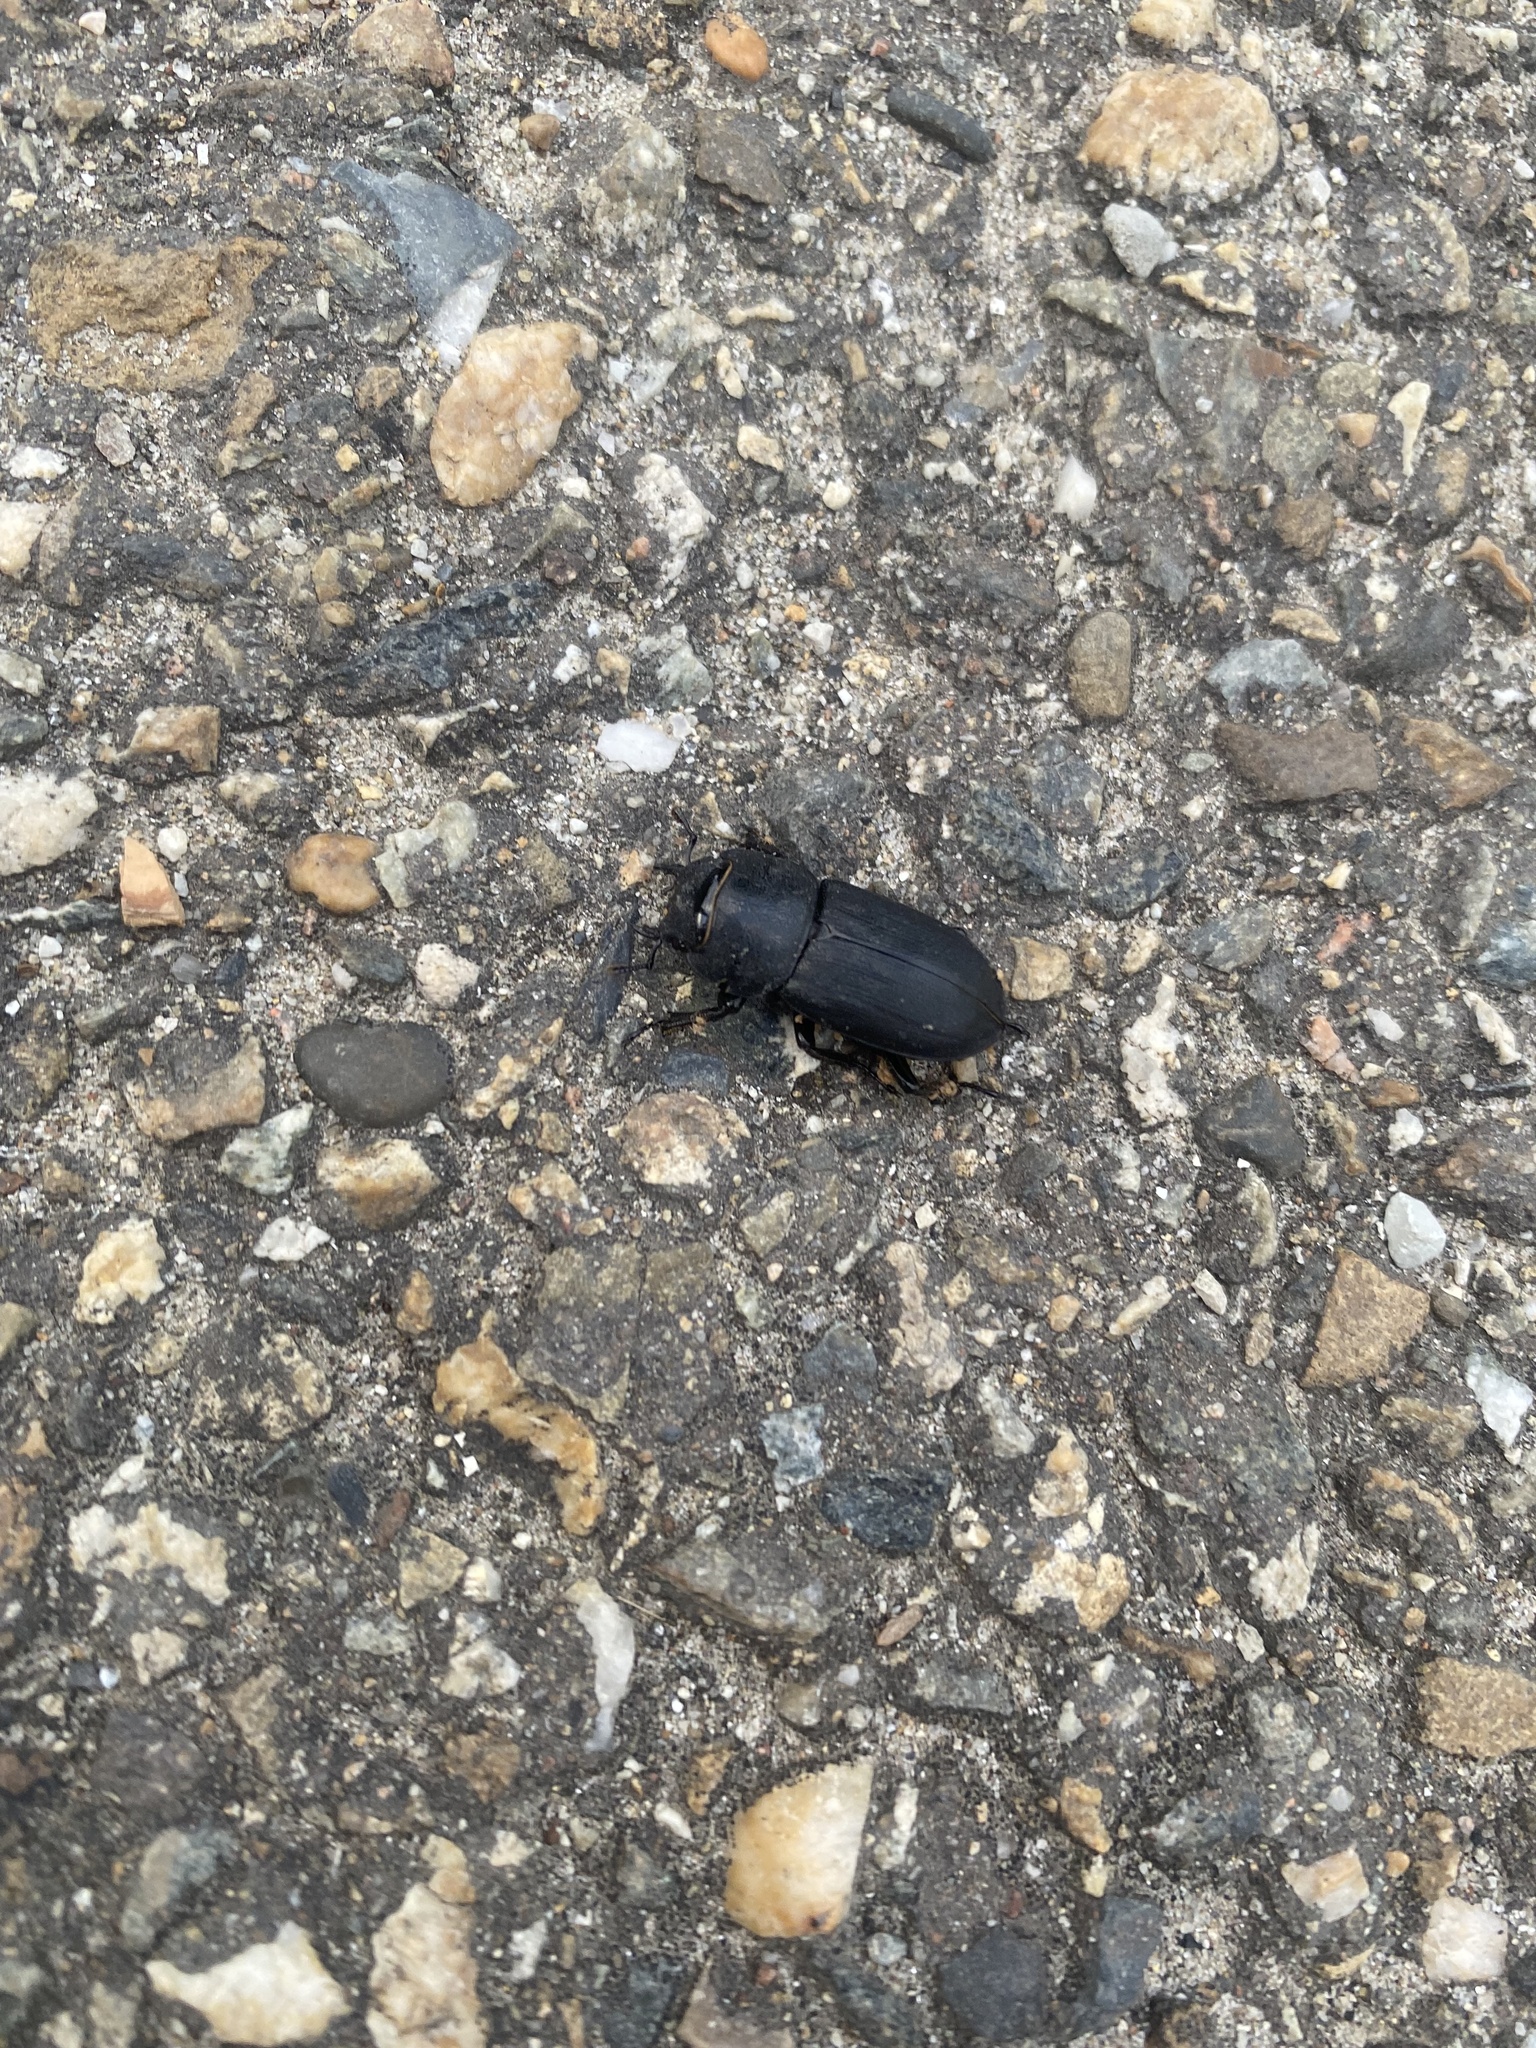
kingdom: Animalia
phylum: Arthropoda
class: Insecta
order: Coleoptera
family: Lucanidae
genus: Dorcus
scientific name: Dorcus parallelipipedus
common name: Lesser stag beetle
